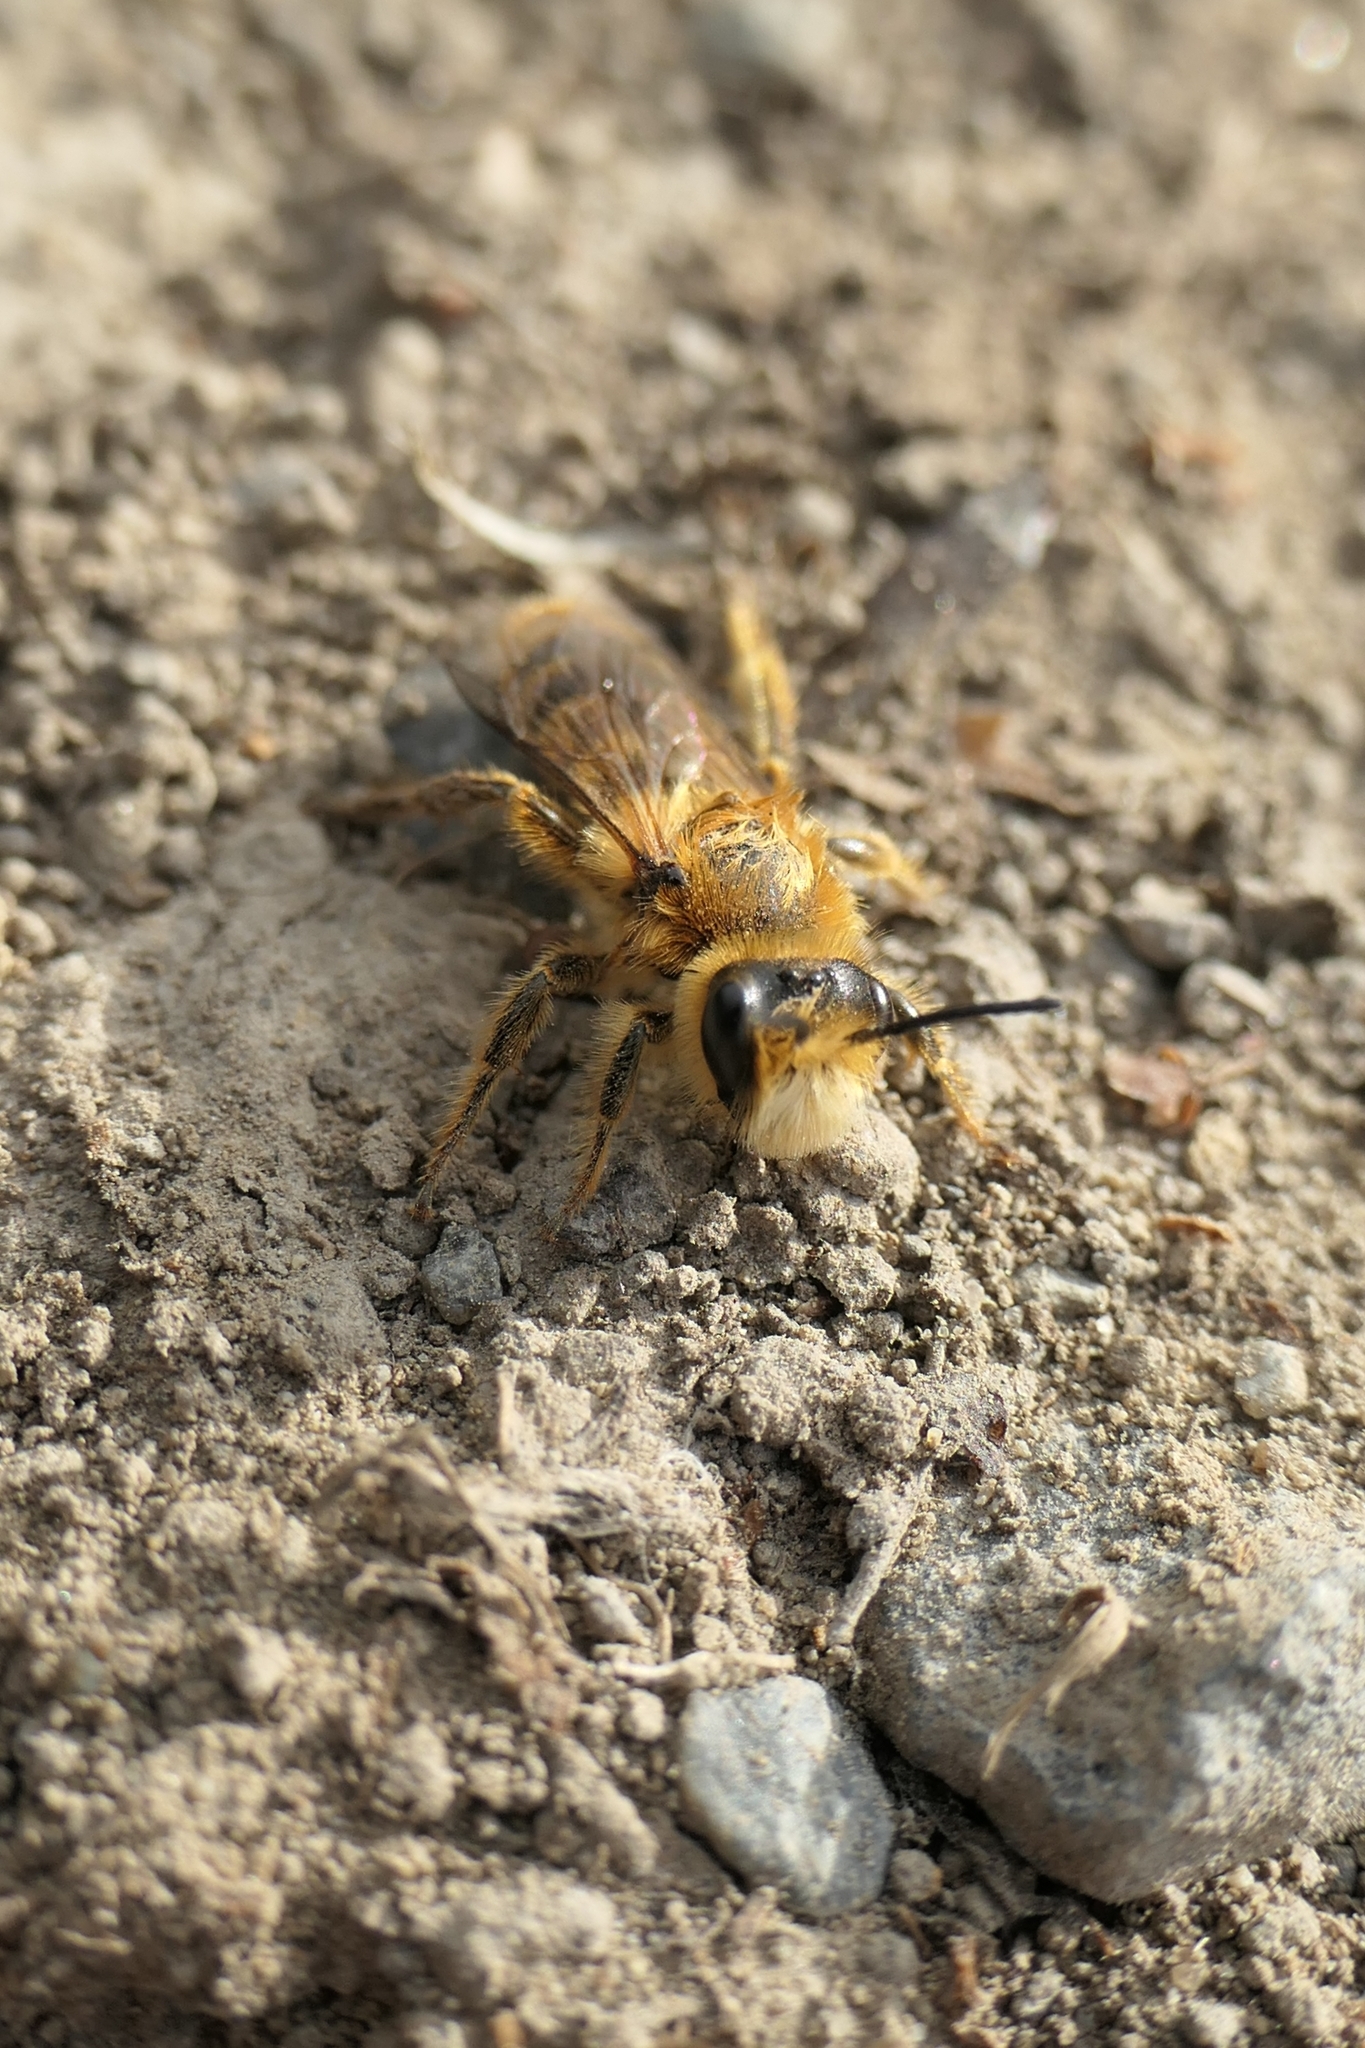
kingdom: Animalia
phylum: Arthropoda
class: Insecta
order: Hymenoptera
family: Colletidae
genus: Leioproctus
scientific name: Leioproctus fulvescens
